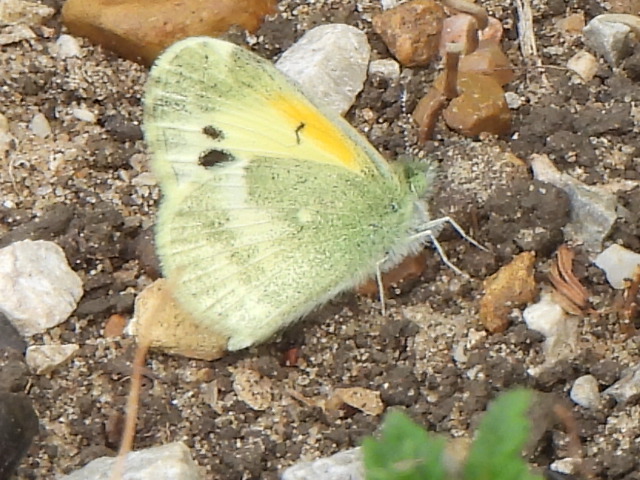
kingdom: Animalia
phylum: Arthropoda
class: Insecta
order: Lepidoptera
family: Pieridae
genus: Nathalis
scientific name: Nathalis iole
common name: Dainty sulphur
